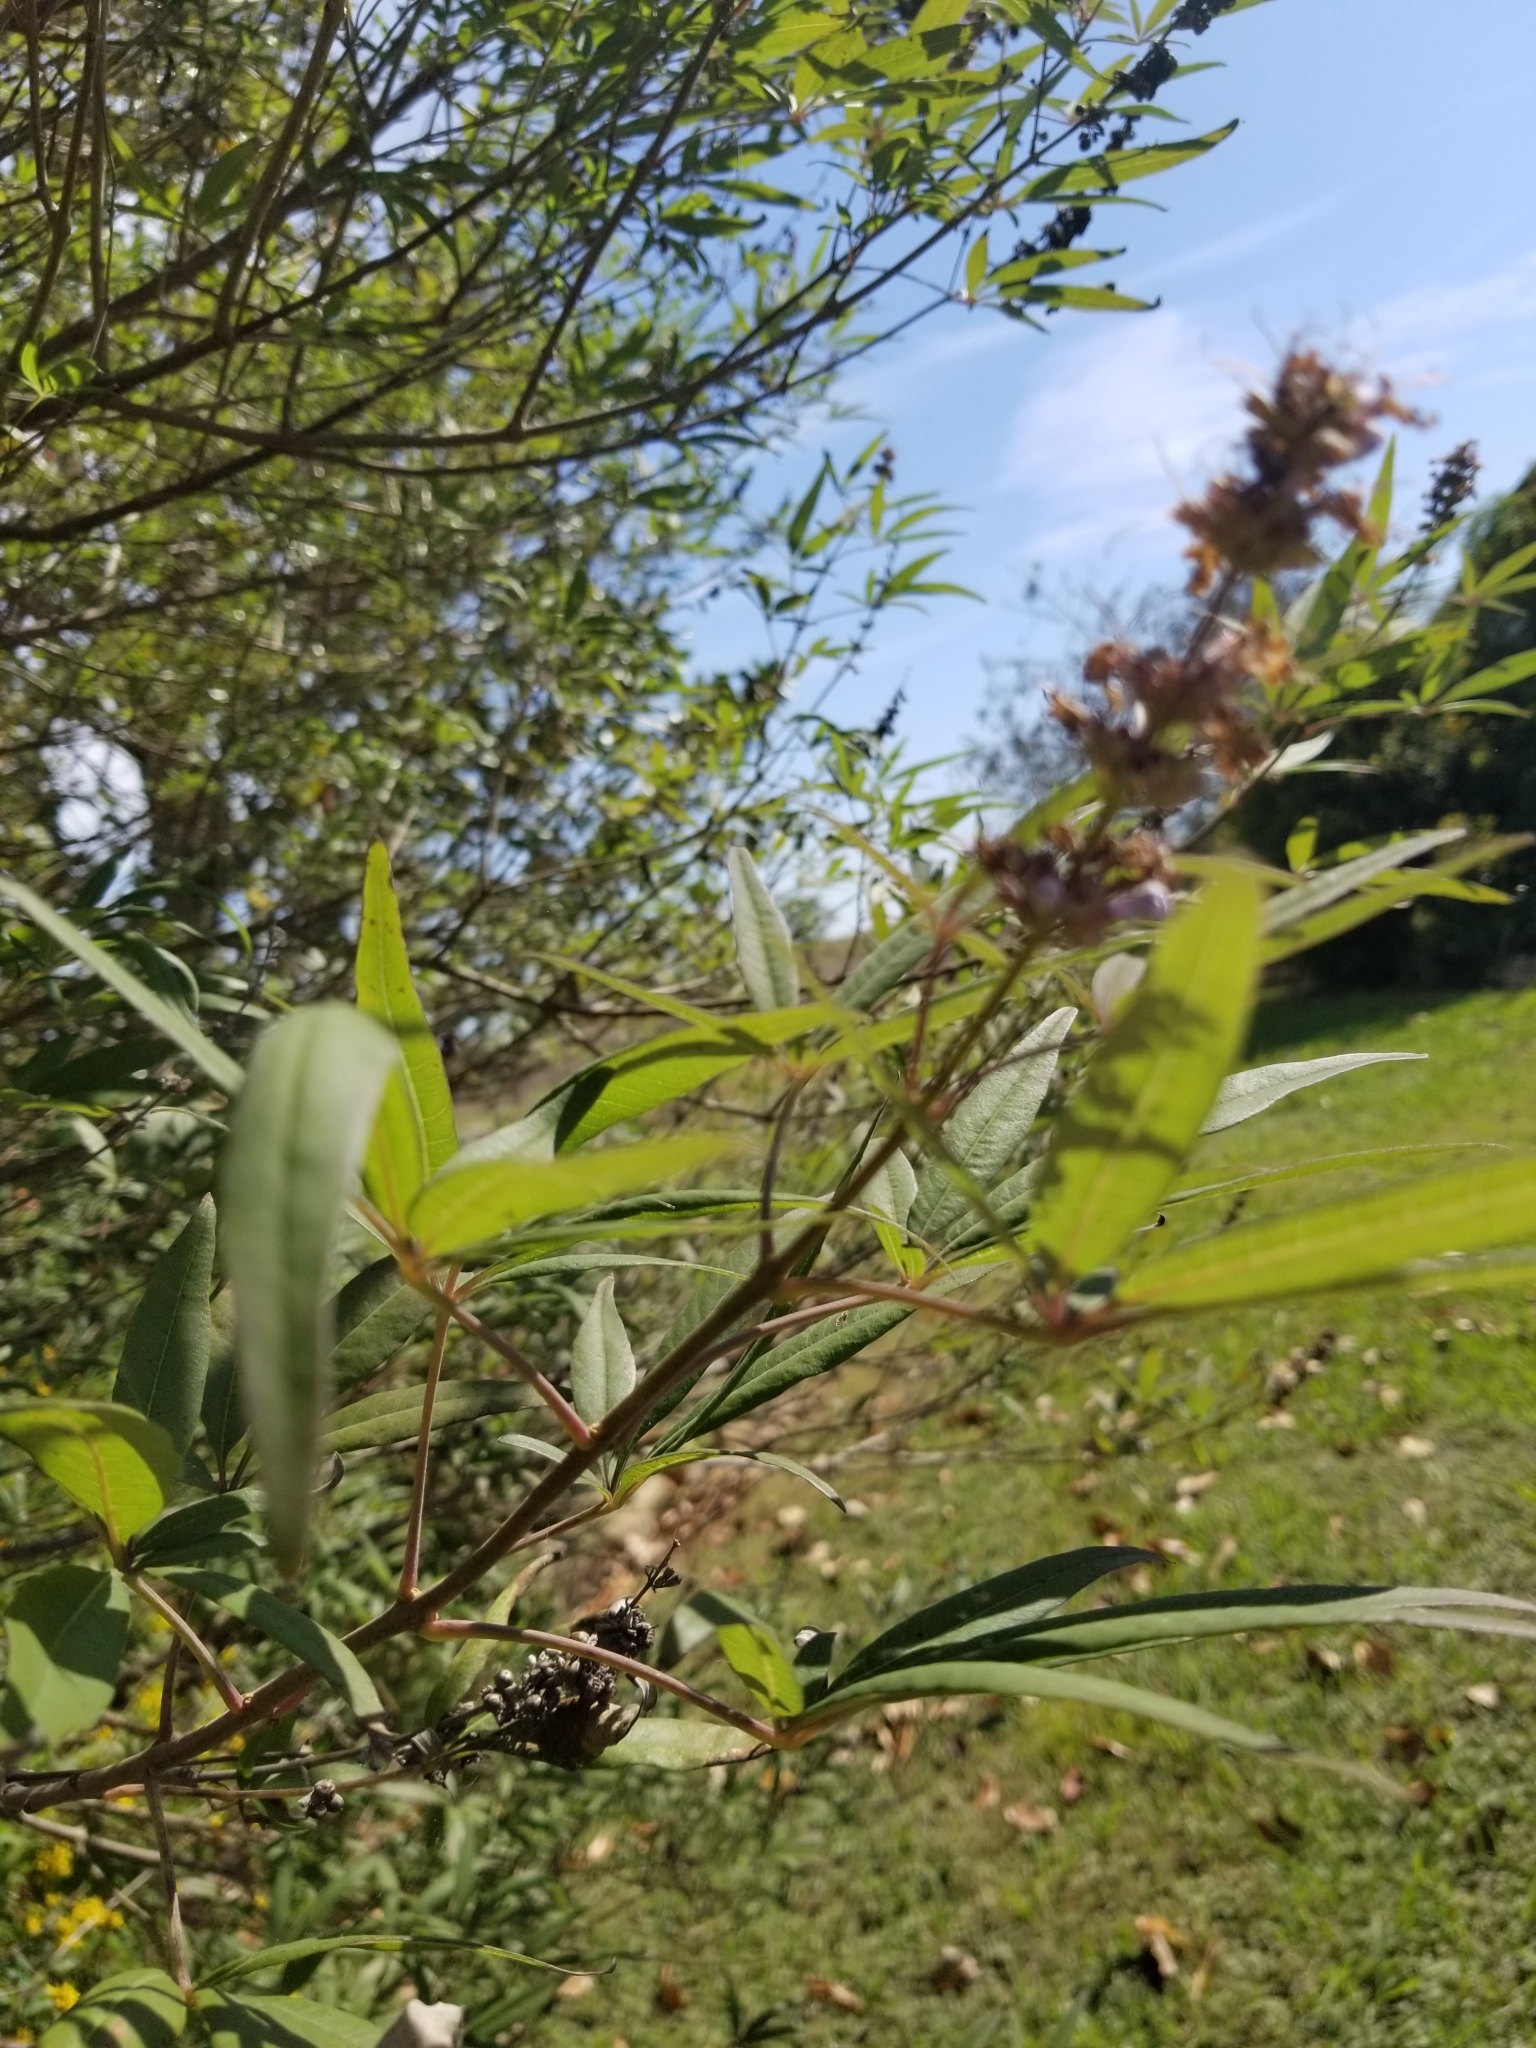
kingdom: Plantae
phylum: Tracheophyta
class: Magnoliopsida
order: Lamiales
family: Lamiaceae
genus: Vitex
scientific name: Vitex agnus-castus
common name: Chasteberry
